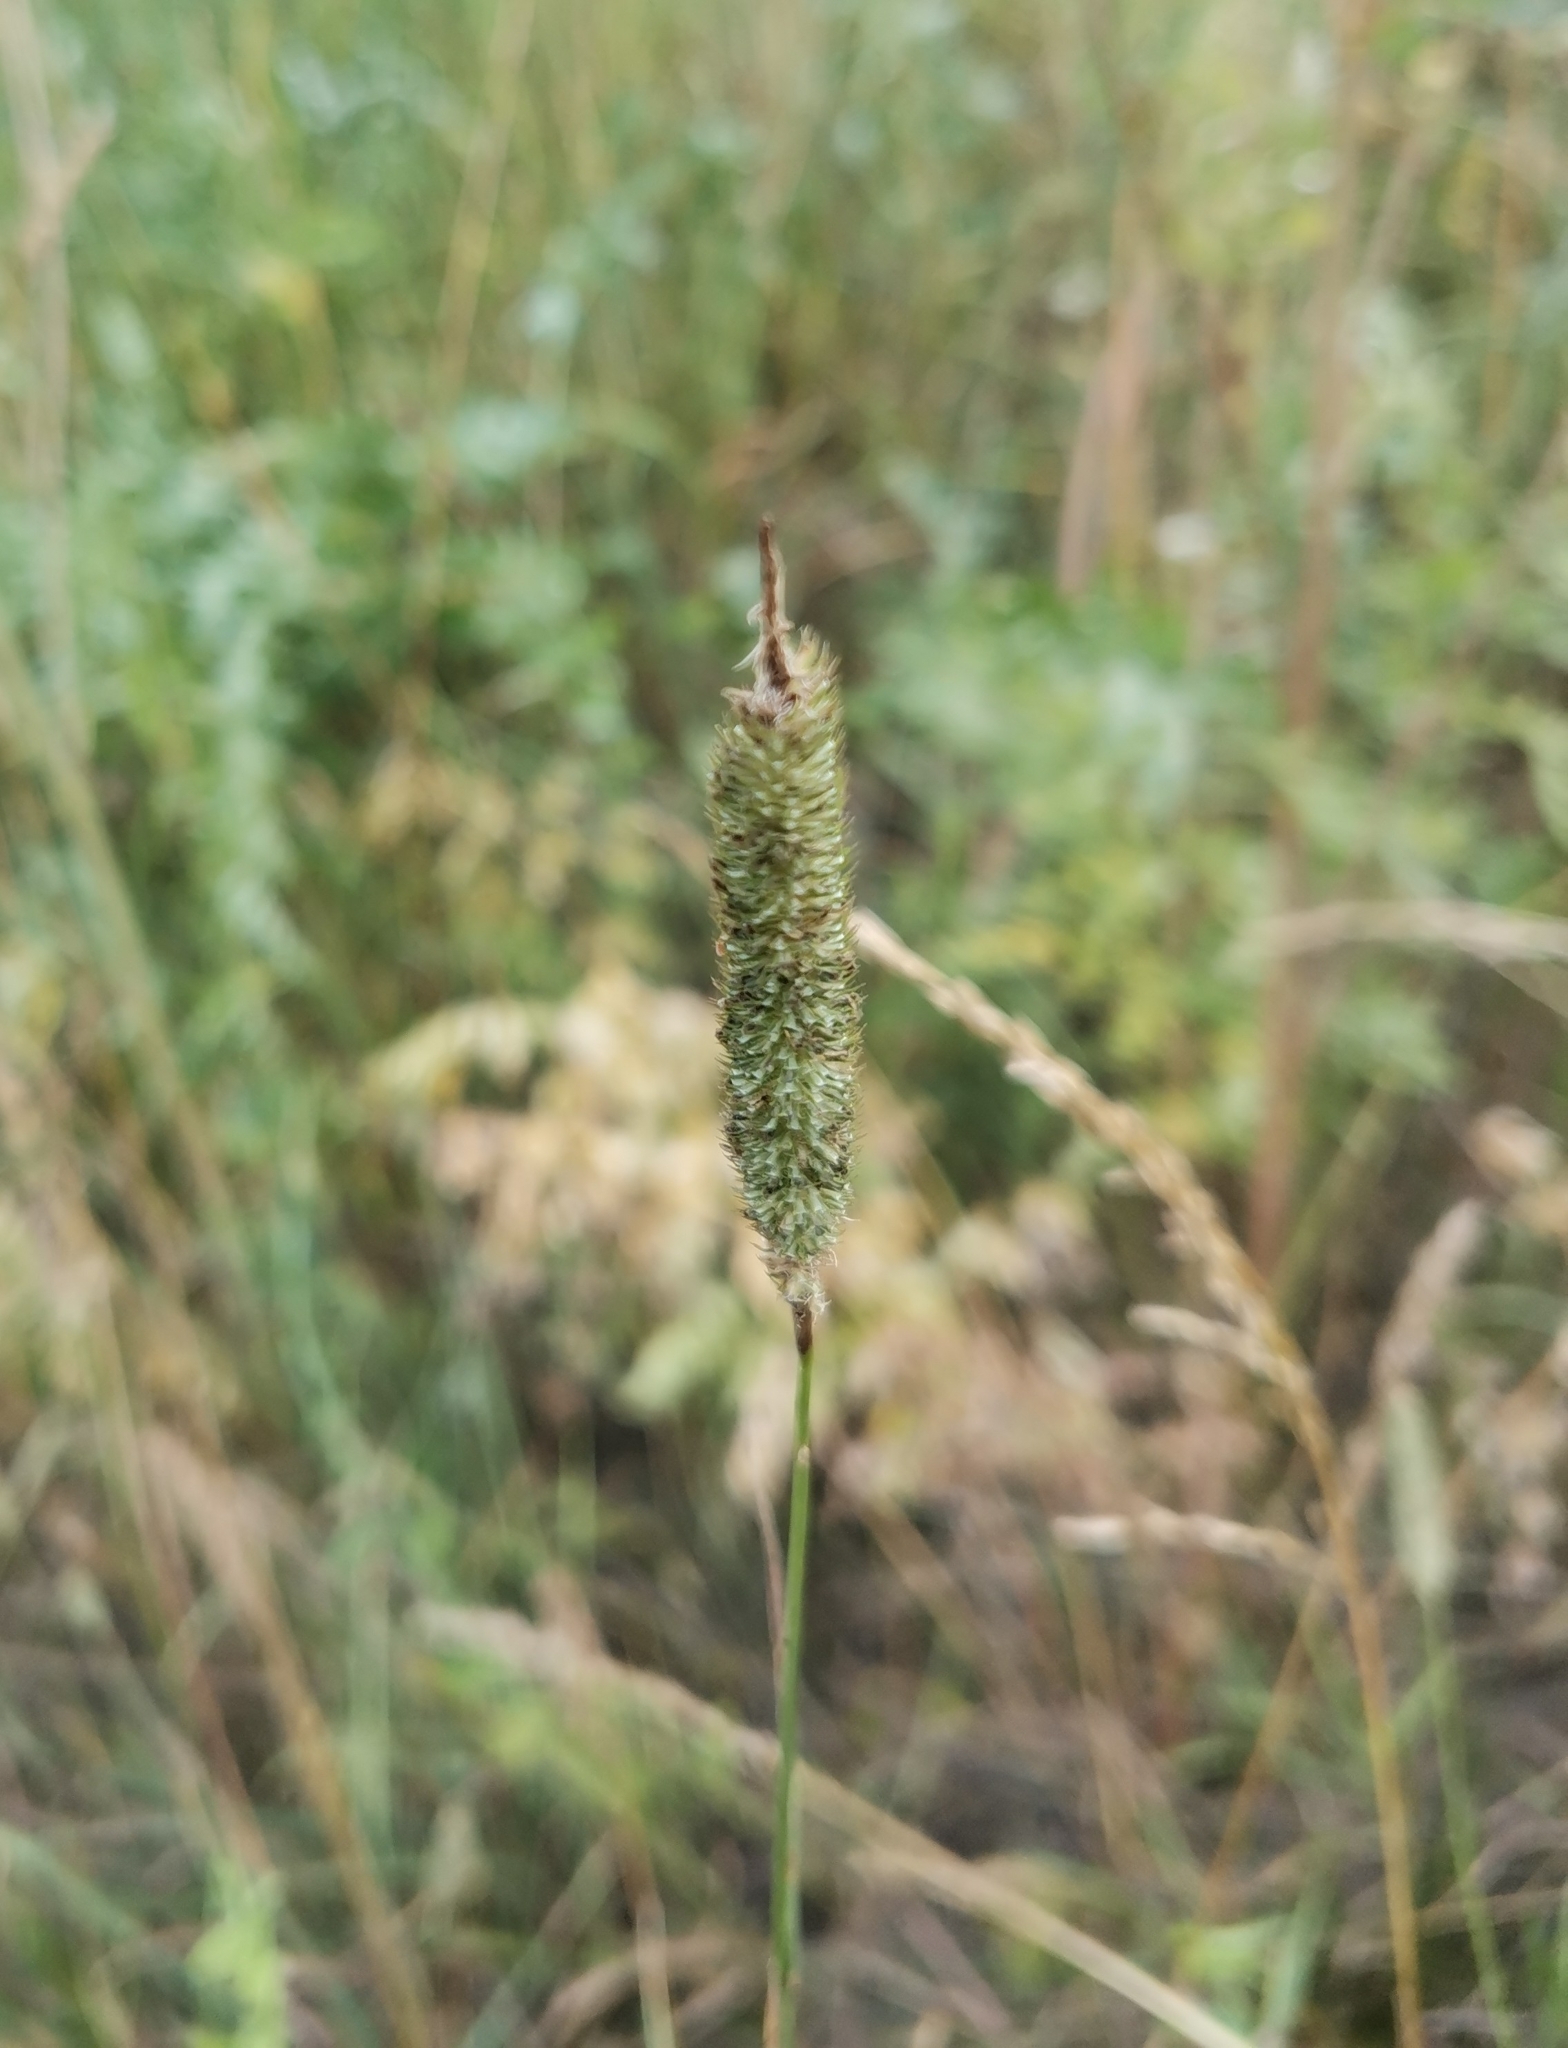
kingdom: Plantae
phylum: Tracheophyta
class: Liliopsida
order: Poales
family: Poaceae
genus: Phleum
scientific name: Phleum pratense
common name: Timothy grass
